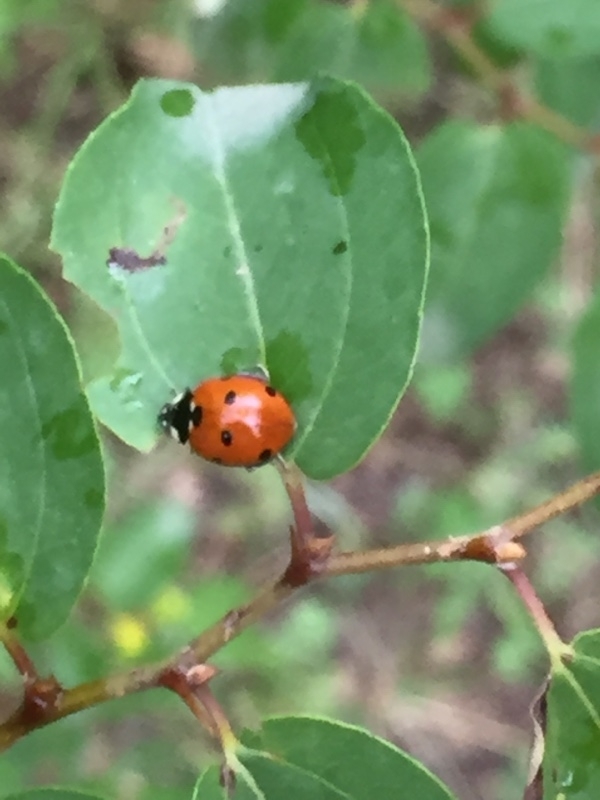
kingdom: Animalia
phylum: Arthropoda
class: Insecta
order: Coleoptera
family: Coccinellidae
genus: Coccinella
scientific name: Coccinella septempunctata
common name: Sevenspotted lady beetle
